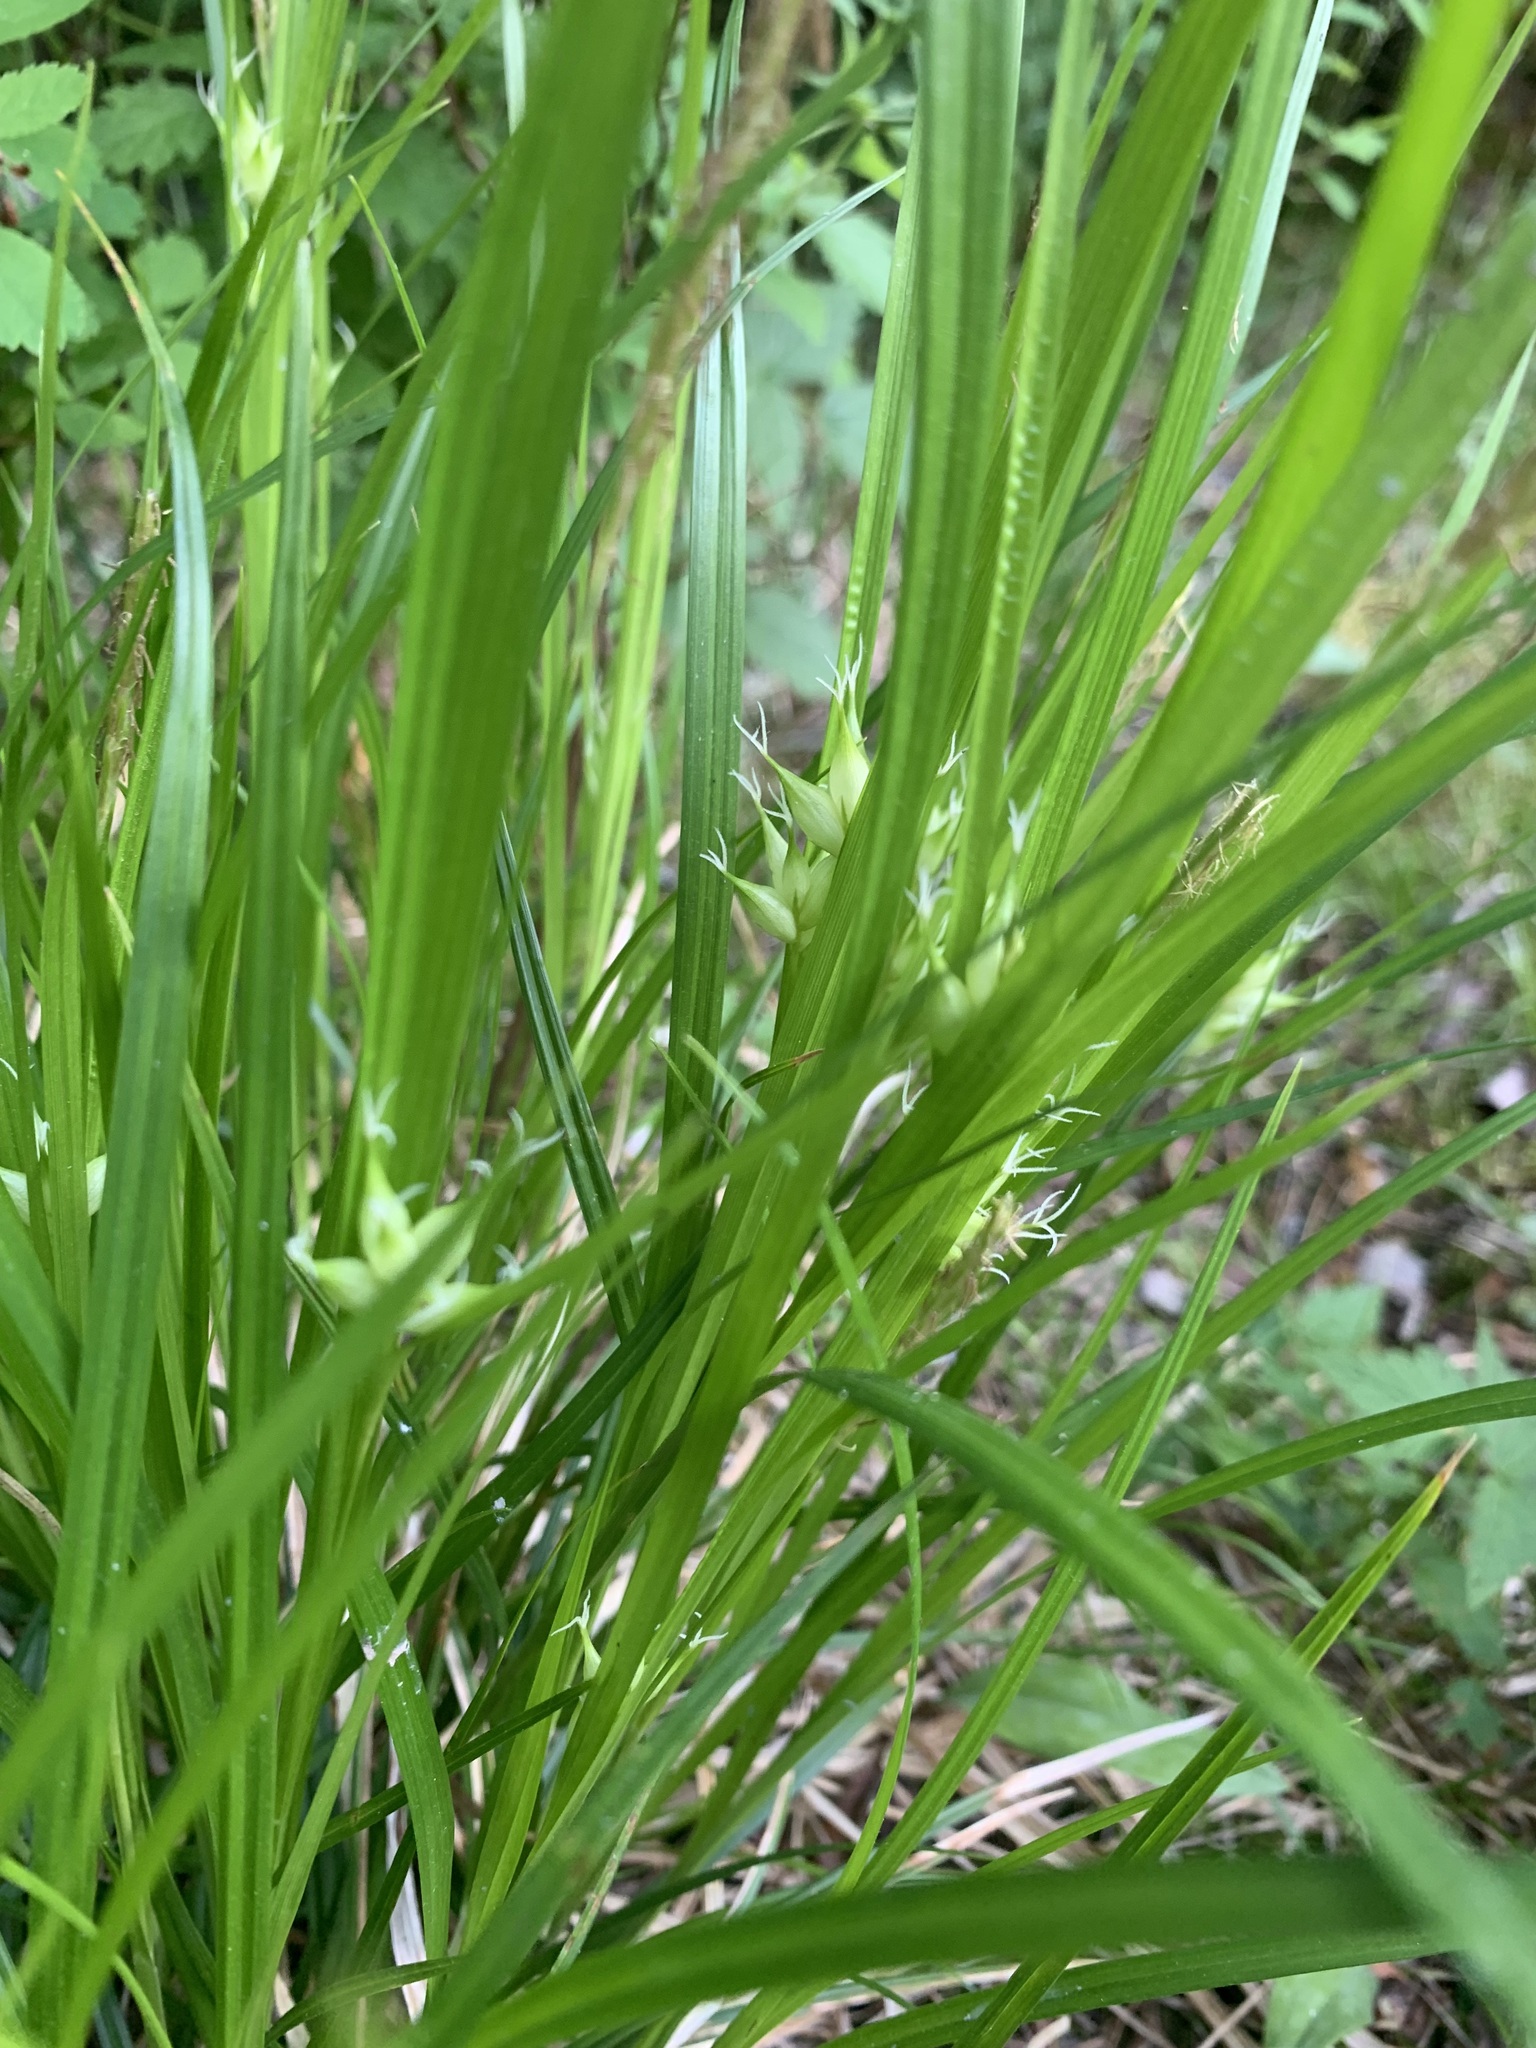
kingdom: Plantae
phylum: Tracheophyta
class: Liliopsida
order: Poales
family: Cyperaceae
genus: Carex
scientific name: Carex intumescens
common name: Greater bladder sedge
